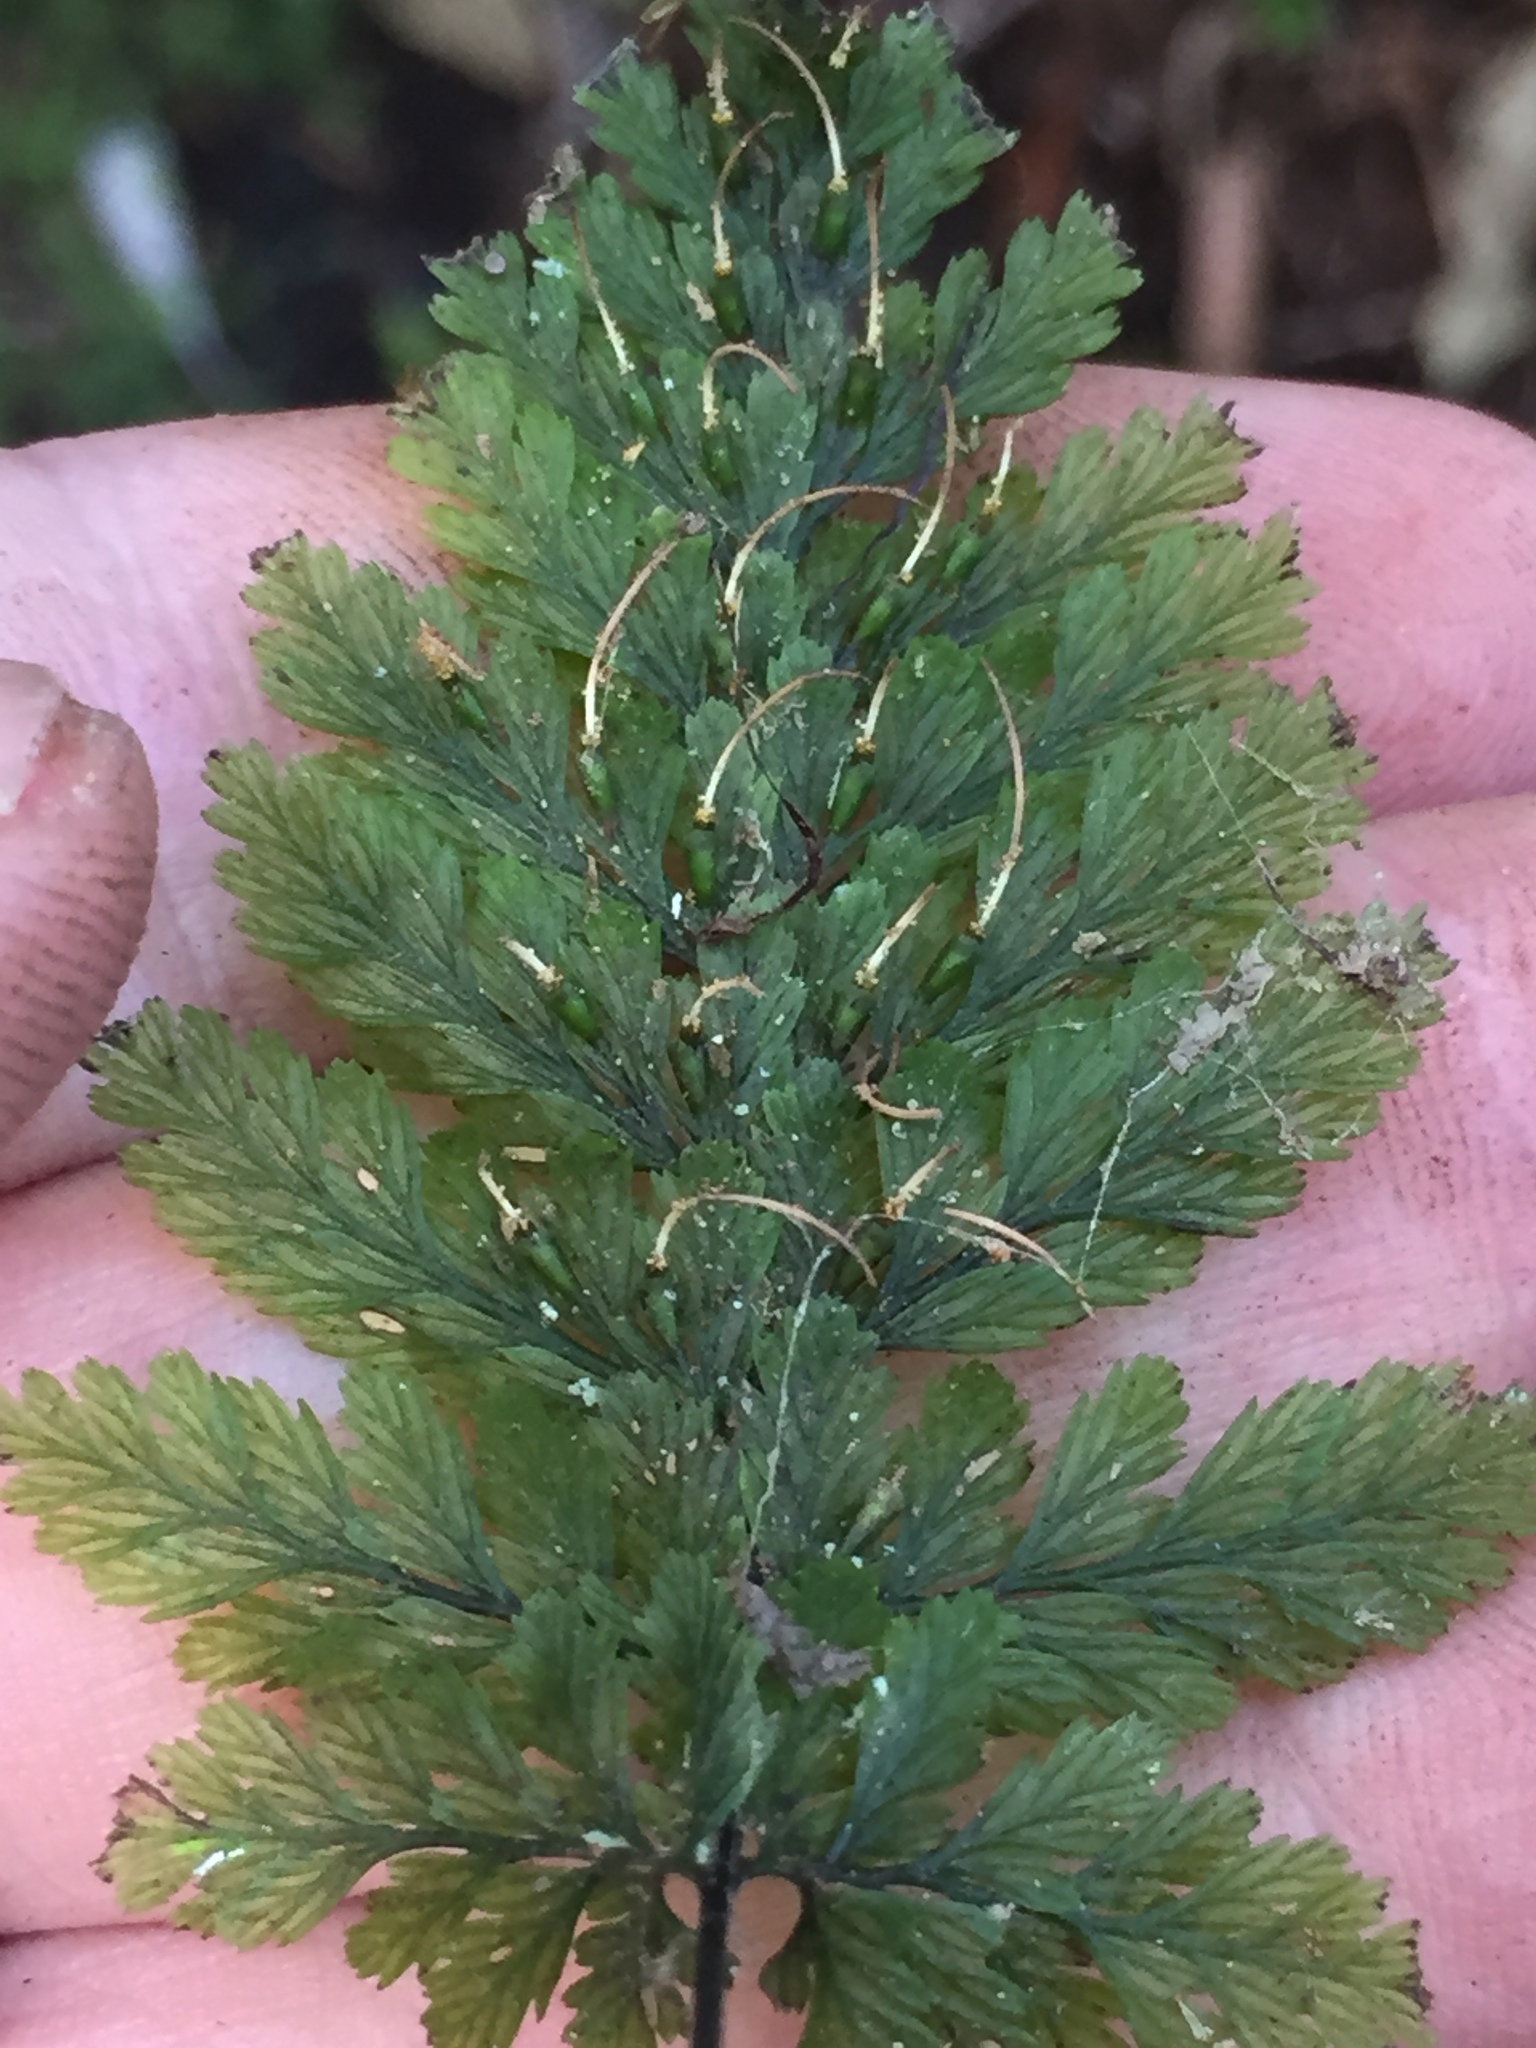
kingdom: Plantae
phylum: Tracheophyta
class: Polypodiopsida
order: Hymenophyllales
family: Hymenophyllaceae
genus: Abrodictyum
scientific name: Abrodictyum elongatum
